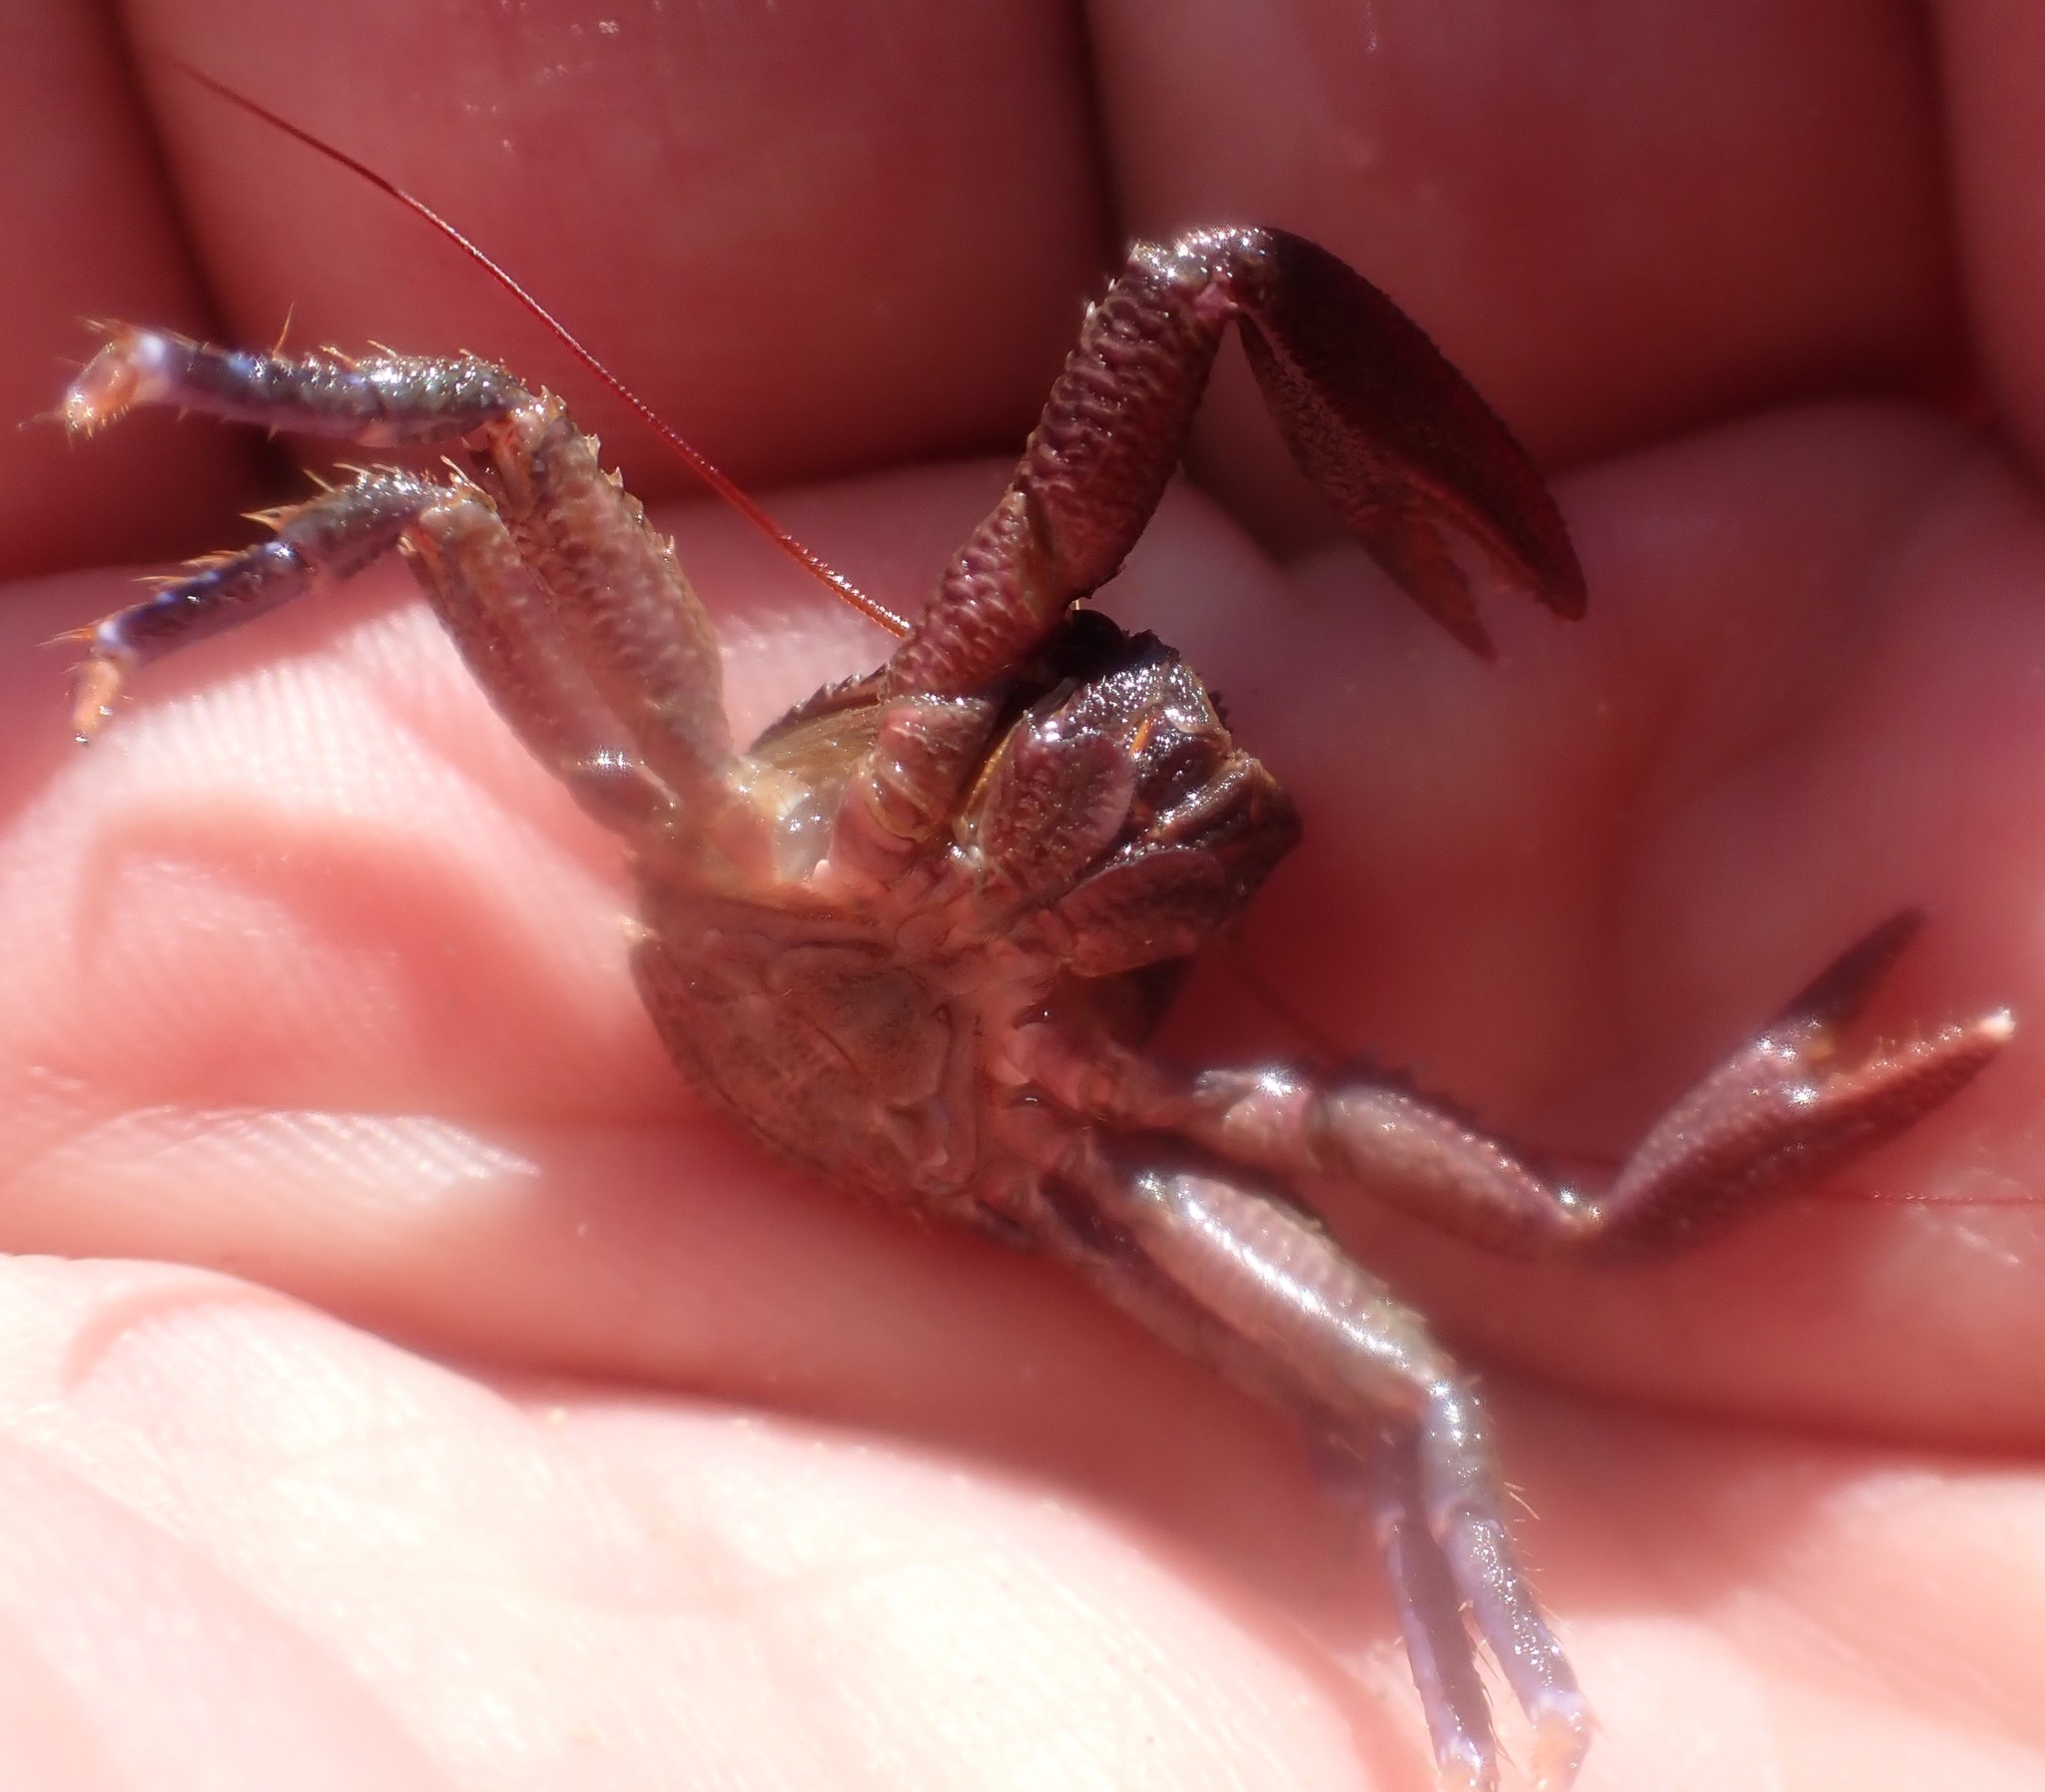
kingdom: Animalia
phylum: Arthropoda
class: Malacostraca
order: Decapoda
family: Porcellanidae
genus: Petrocheles
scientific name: Petrocheles australiensis
